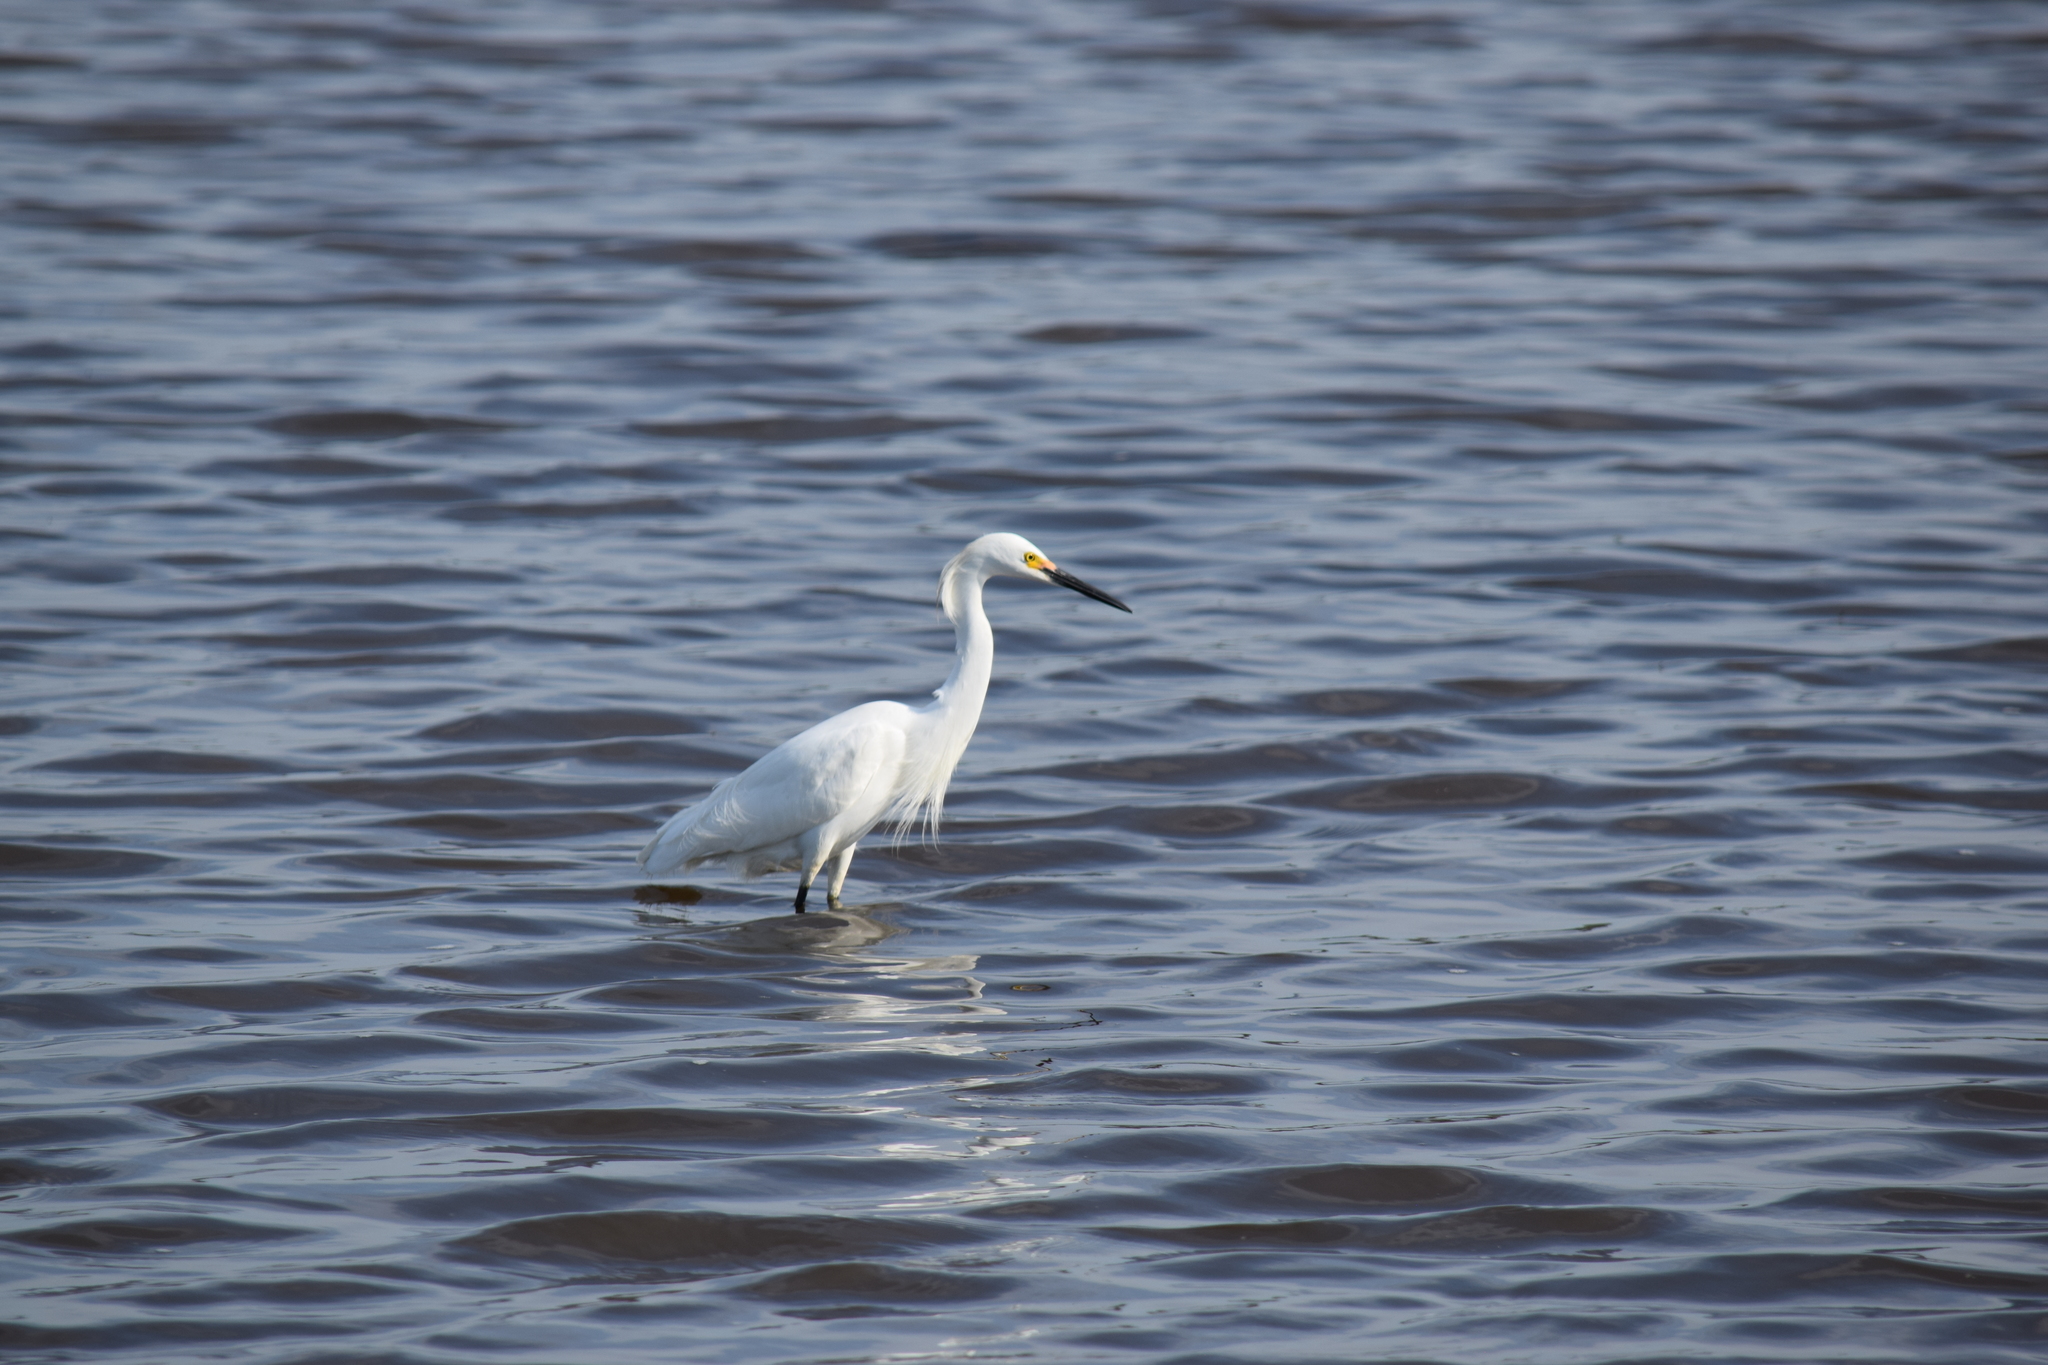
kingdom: Animalia
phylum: Chordata
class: Aves
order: Pelecaniformes
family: Ardeidae
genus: Egretta
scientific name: Egretta thula
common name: Snowy egret
